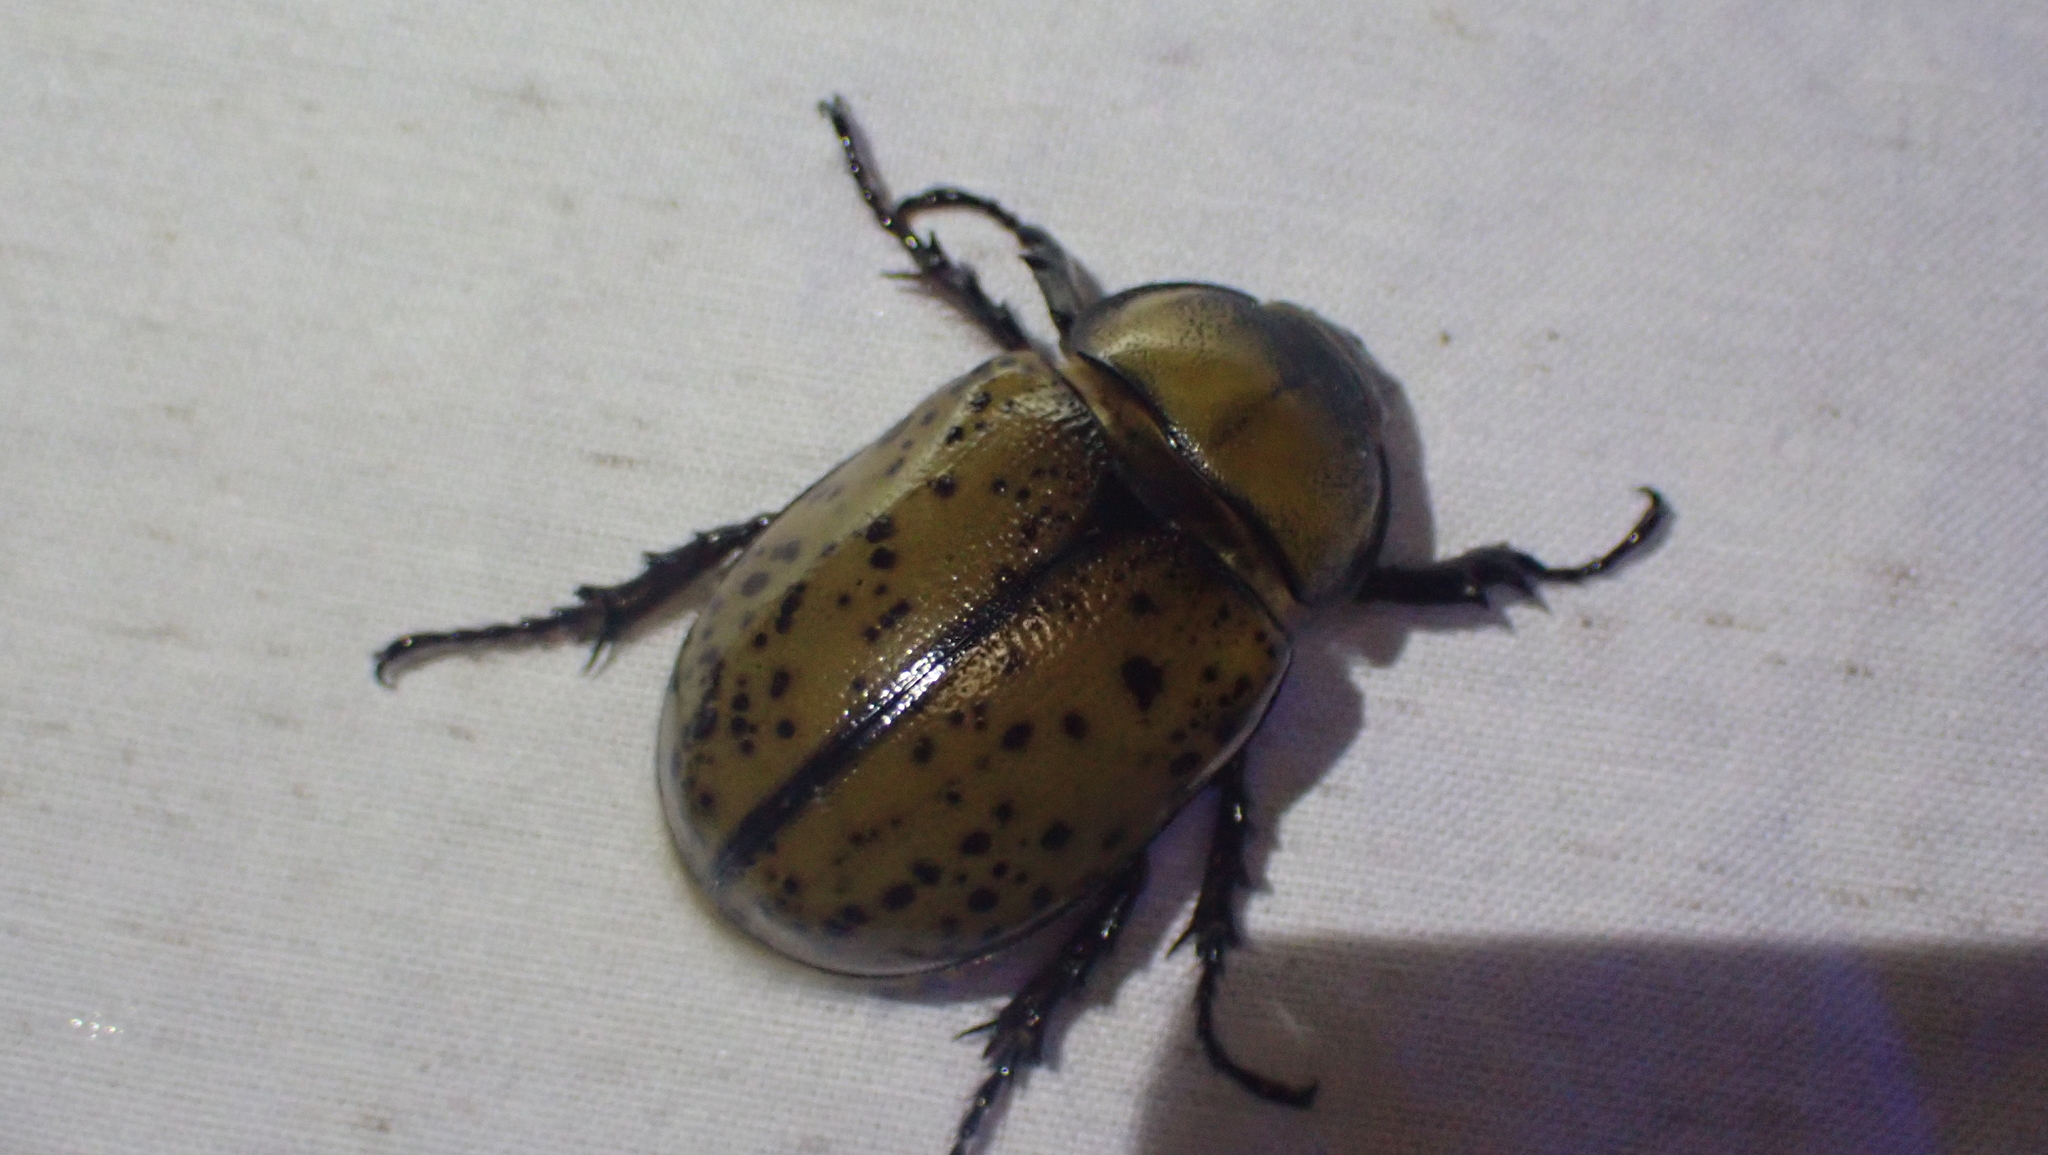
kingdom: Animalia
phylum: Arthropoda
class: Insecta
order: Coleoptera
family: Scarabaeidae
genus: Dynastes
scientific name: Dynastes tityus
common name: Eastern hercules beetle
